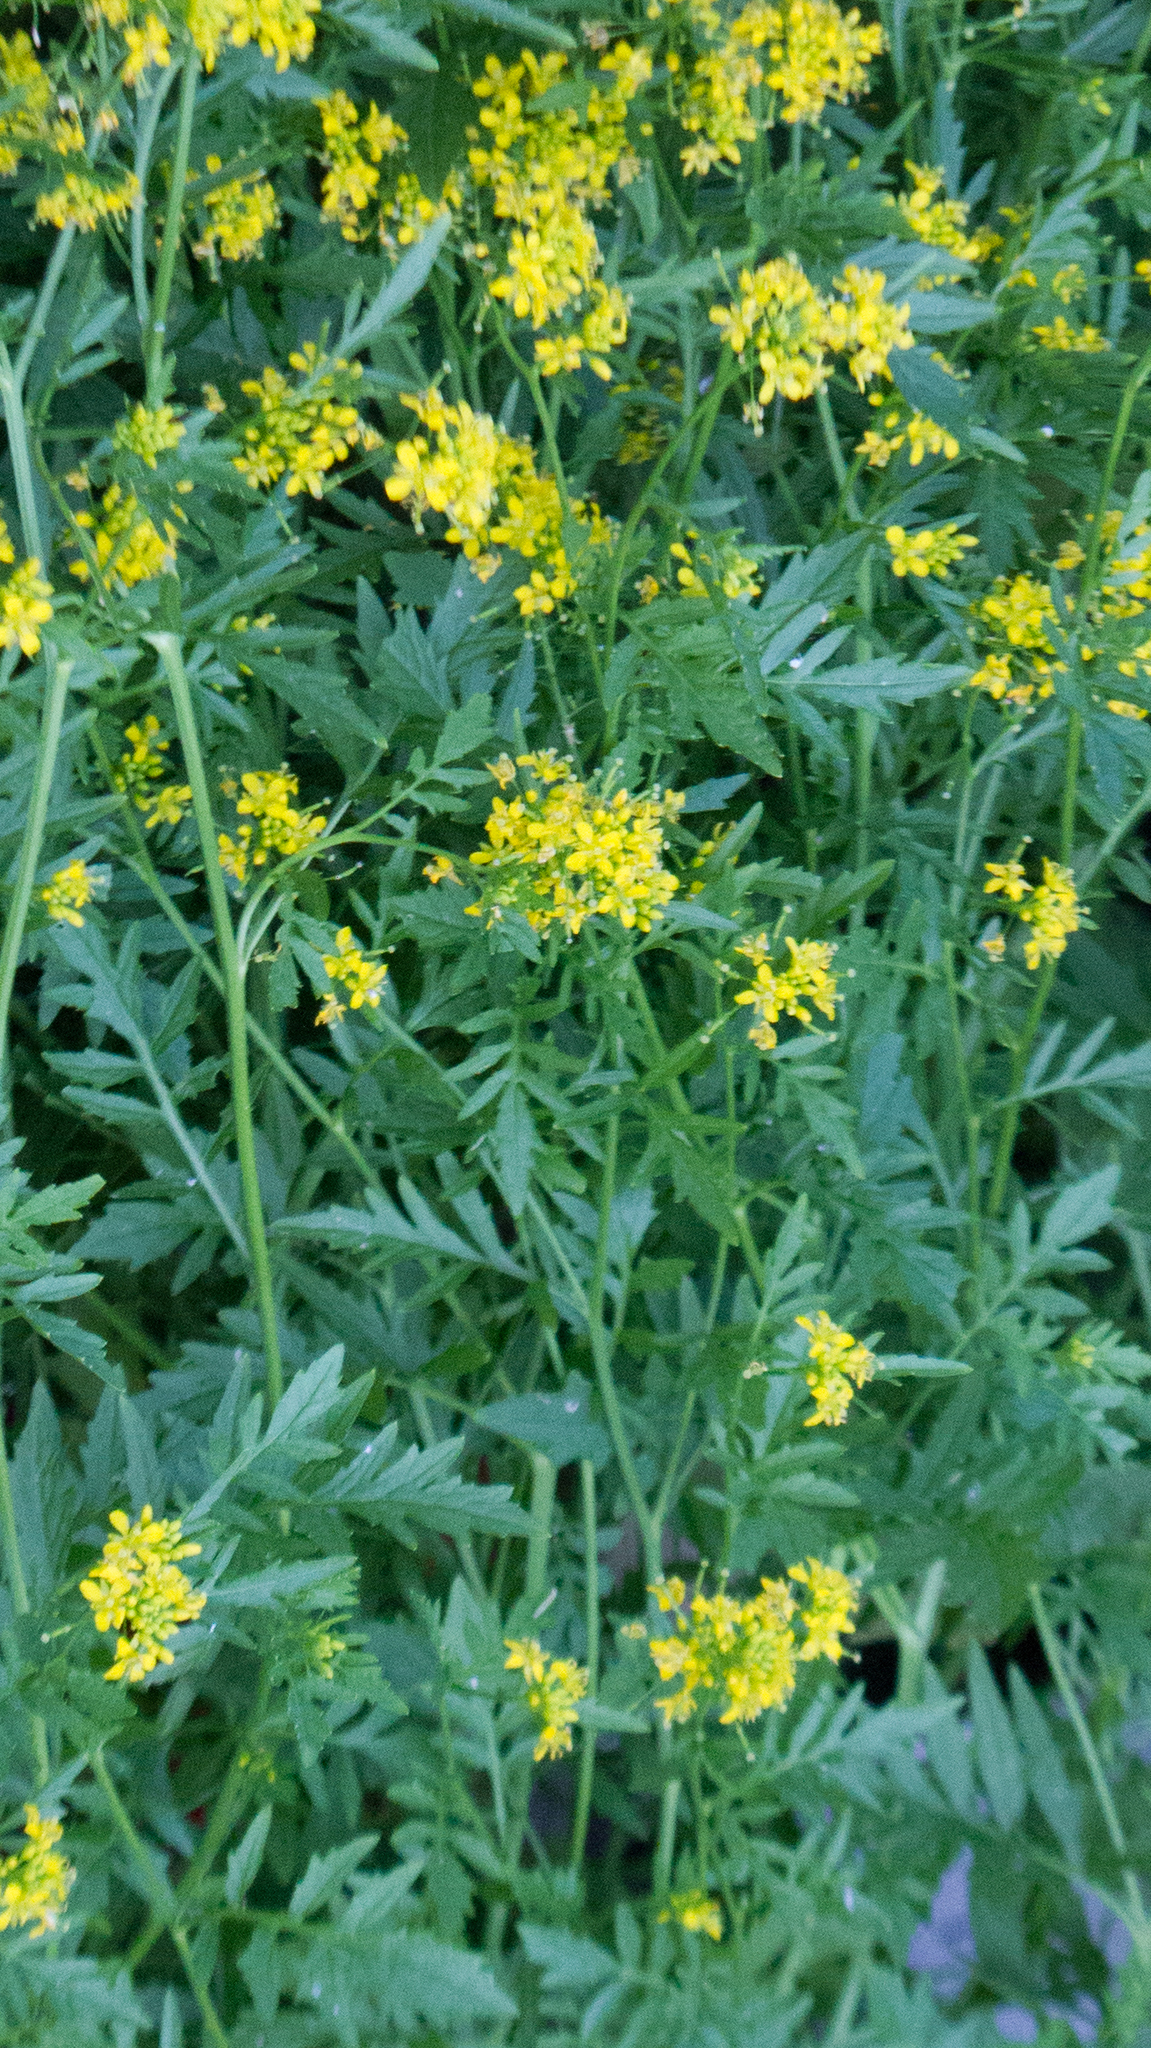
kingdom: Plantae
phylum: Tracheophyta
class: Magnoliopsida
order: Brassicales
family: Brassicaceae
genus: Rorippa
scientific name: Rorippa sylvestris
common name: Creeping yellowcress
